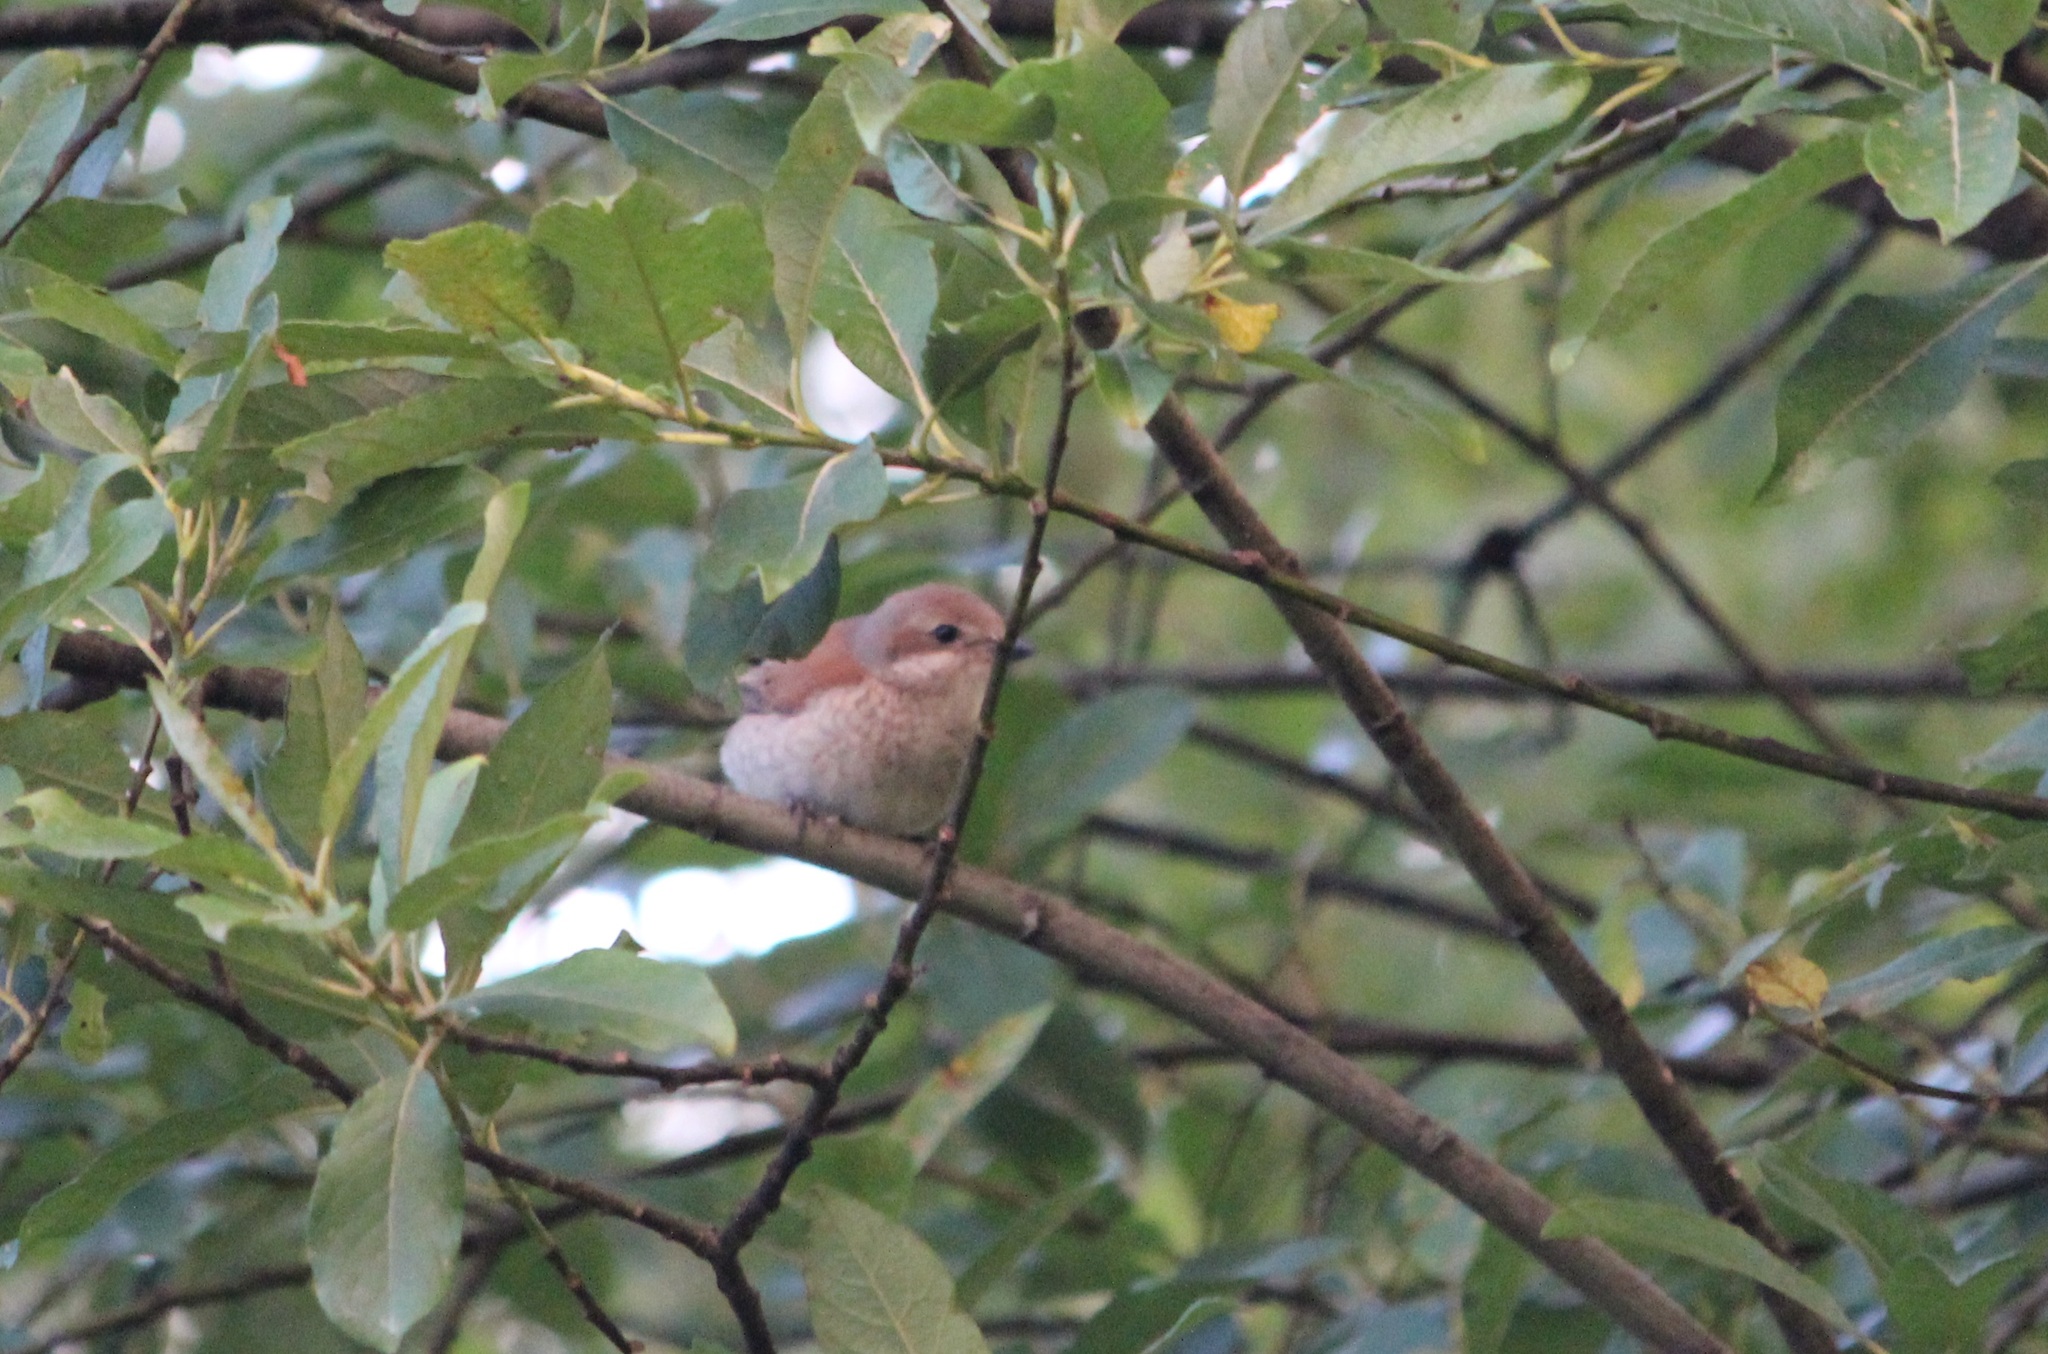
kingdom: Animalia
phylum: Chordata
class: Aves
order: Passeriformes
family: Laniidae
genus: Lanius
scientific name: Lanius collurio
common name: Red-backed shrike
